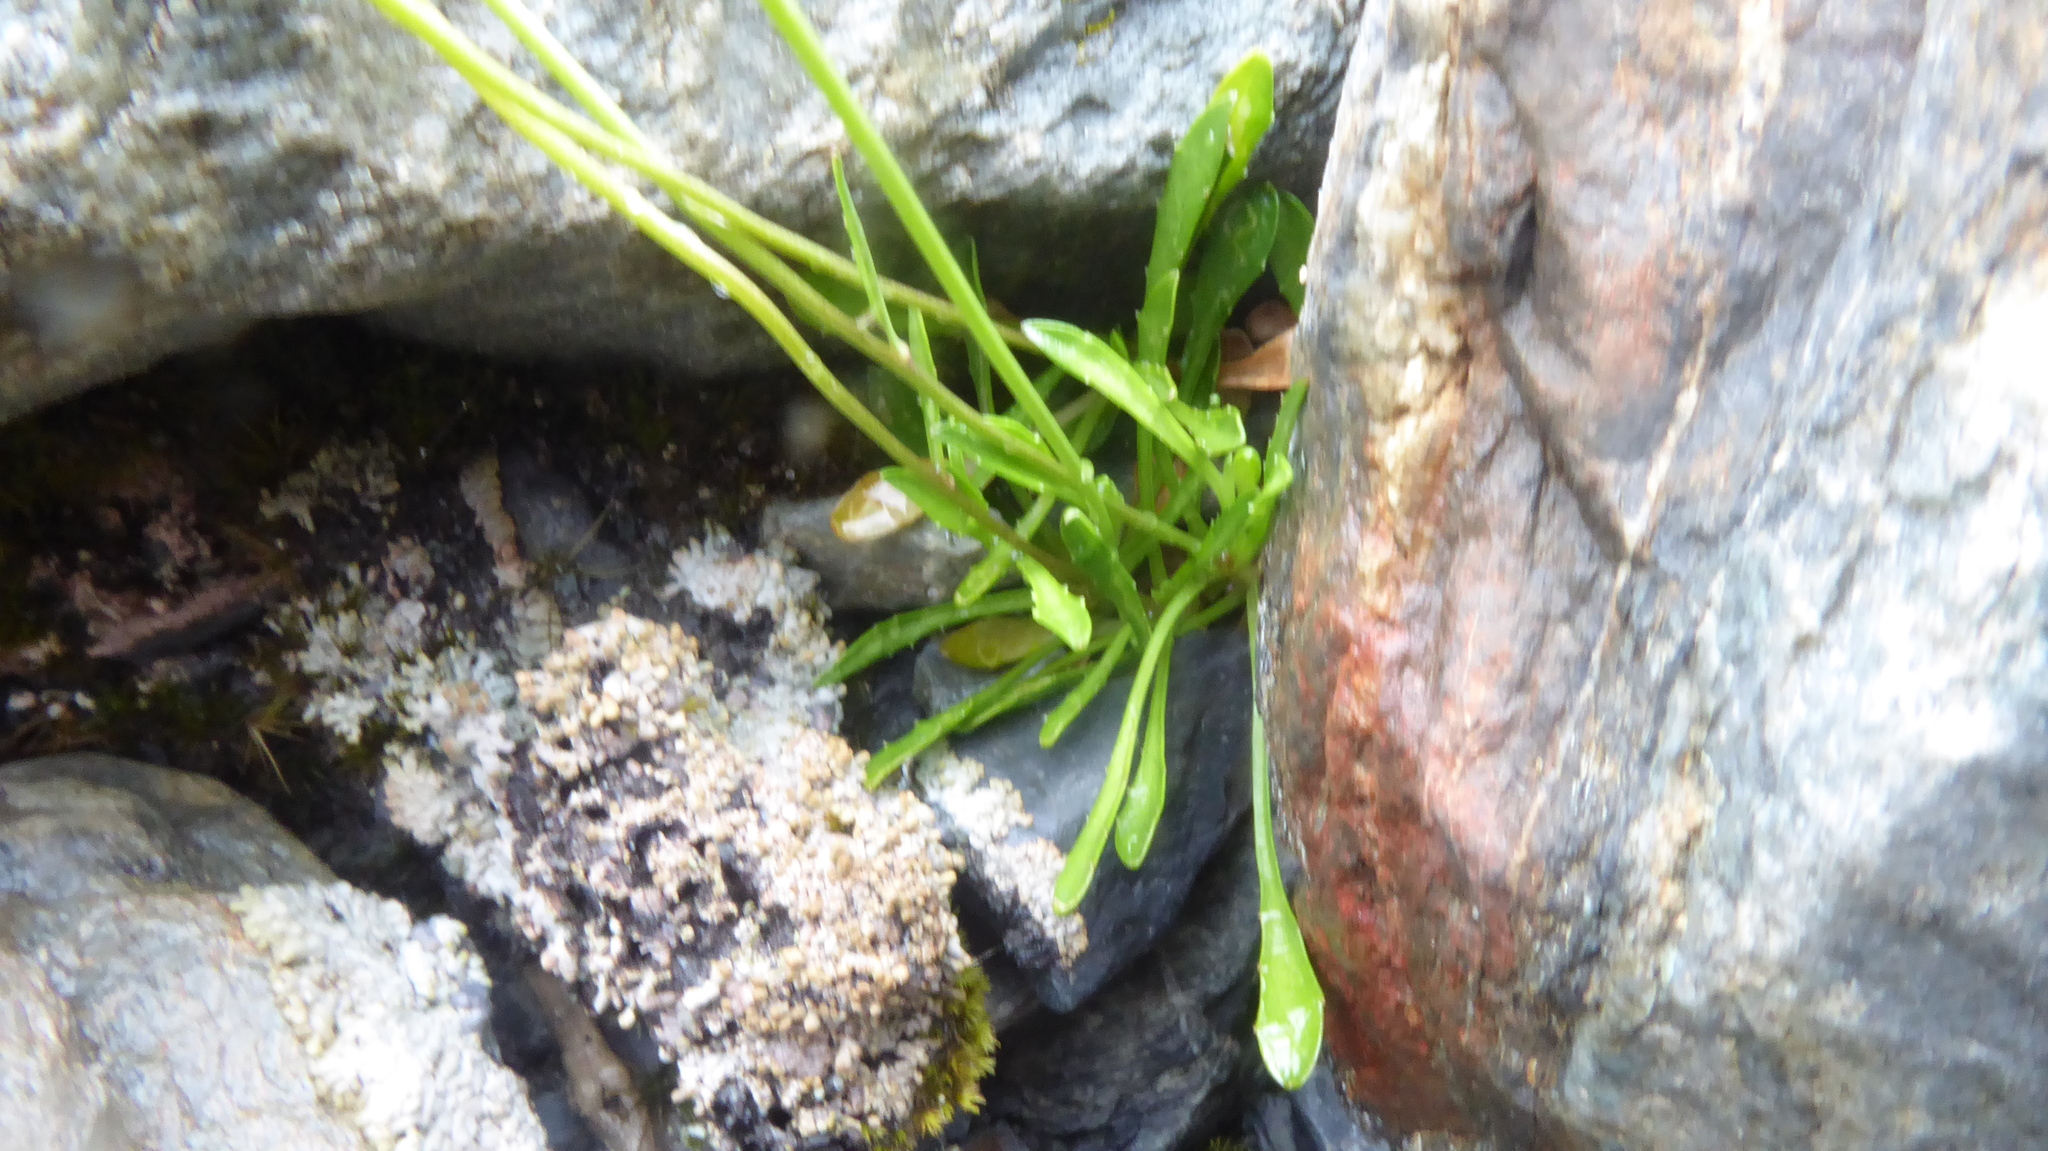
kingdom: Plantae
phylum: Tracheophyta
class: Magnoliopsida
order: Asterales
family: Campanulaceae
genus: Wahlenbergia
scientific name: Wahlenbergia albomarginata
